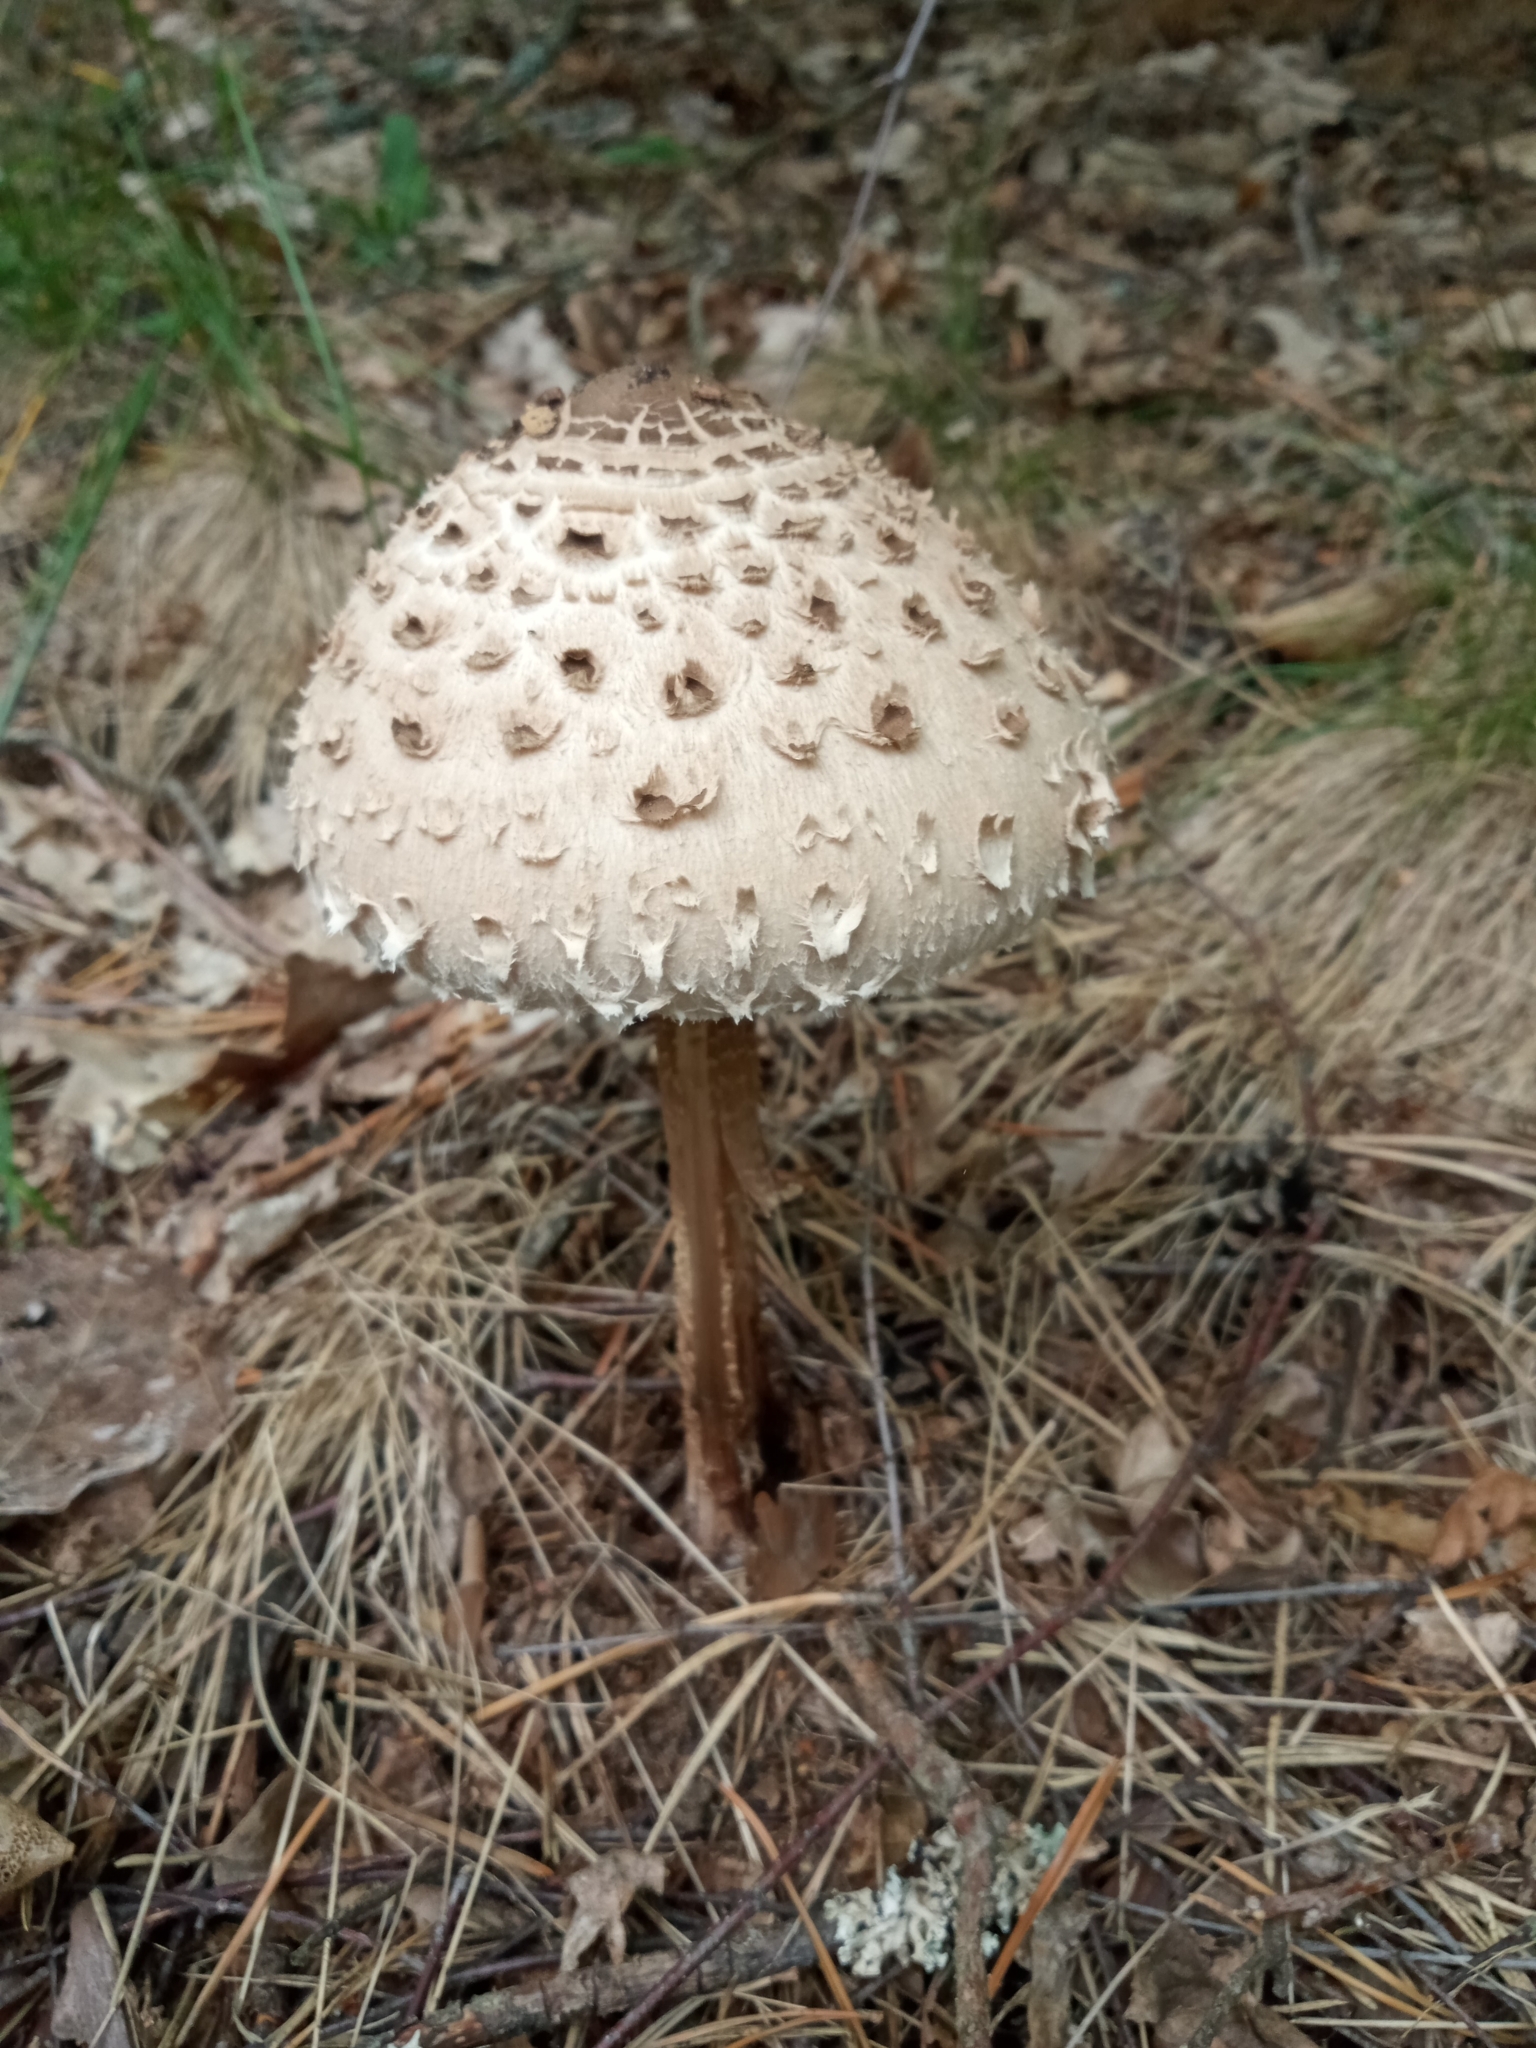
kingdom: Fungi
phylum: Basidiomycota
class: Agaricomycetes
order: Agaricales
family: Agaricaceae
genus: Macrolepiota
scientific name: Macrolepiota procera
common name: Parasol
